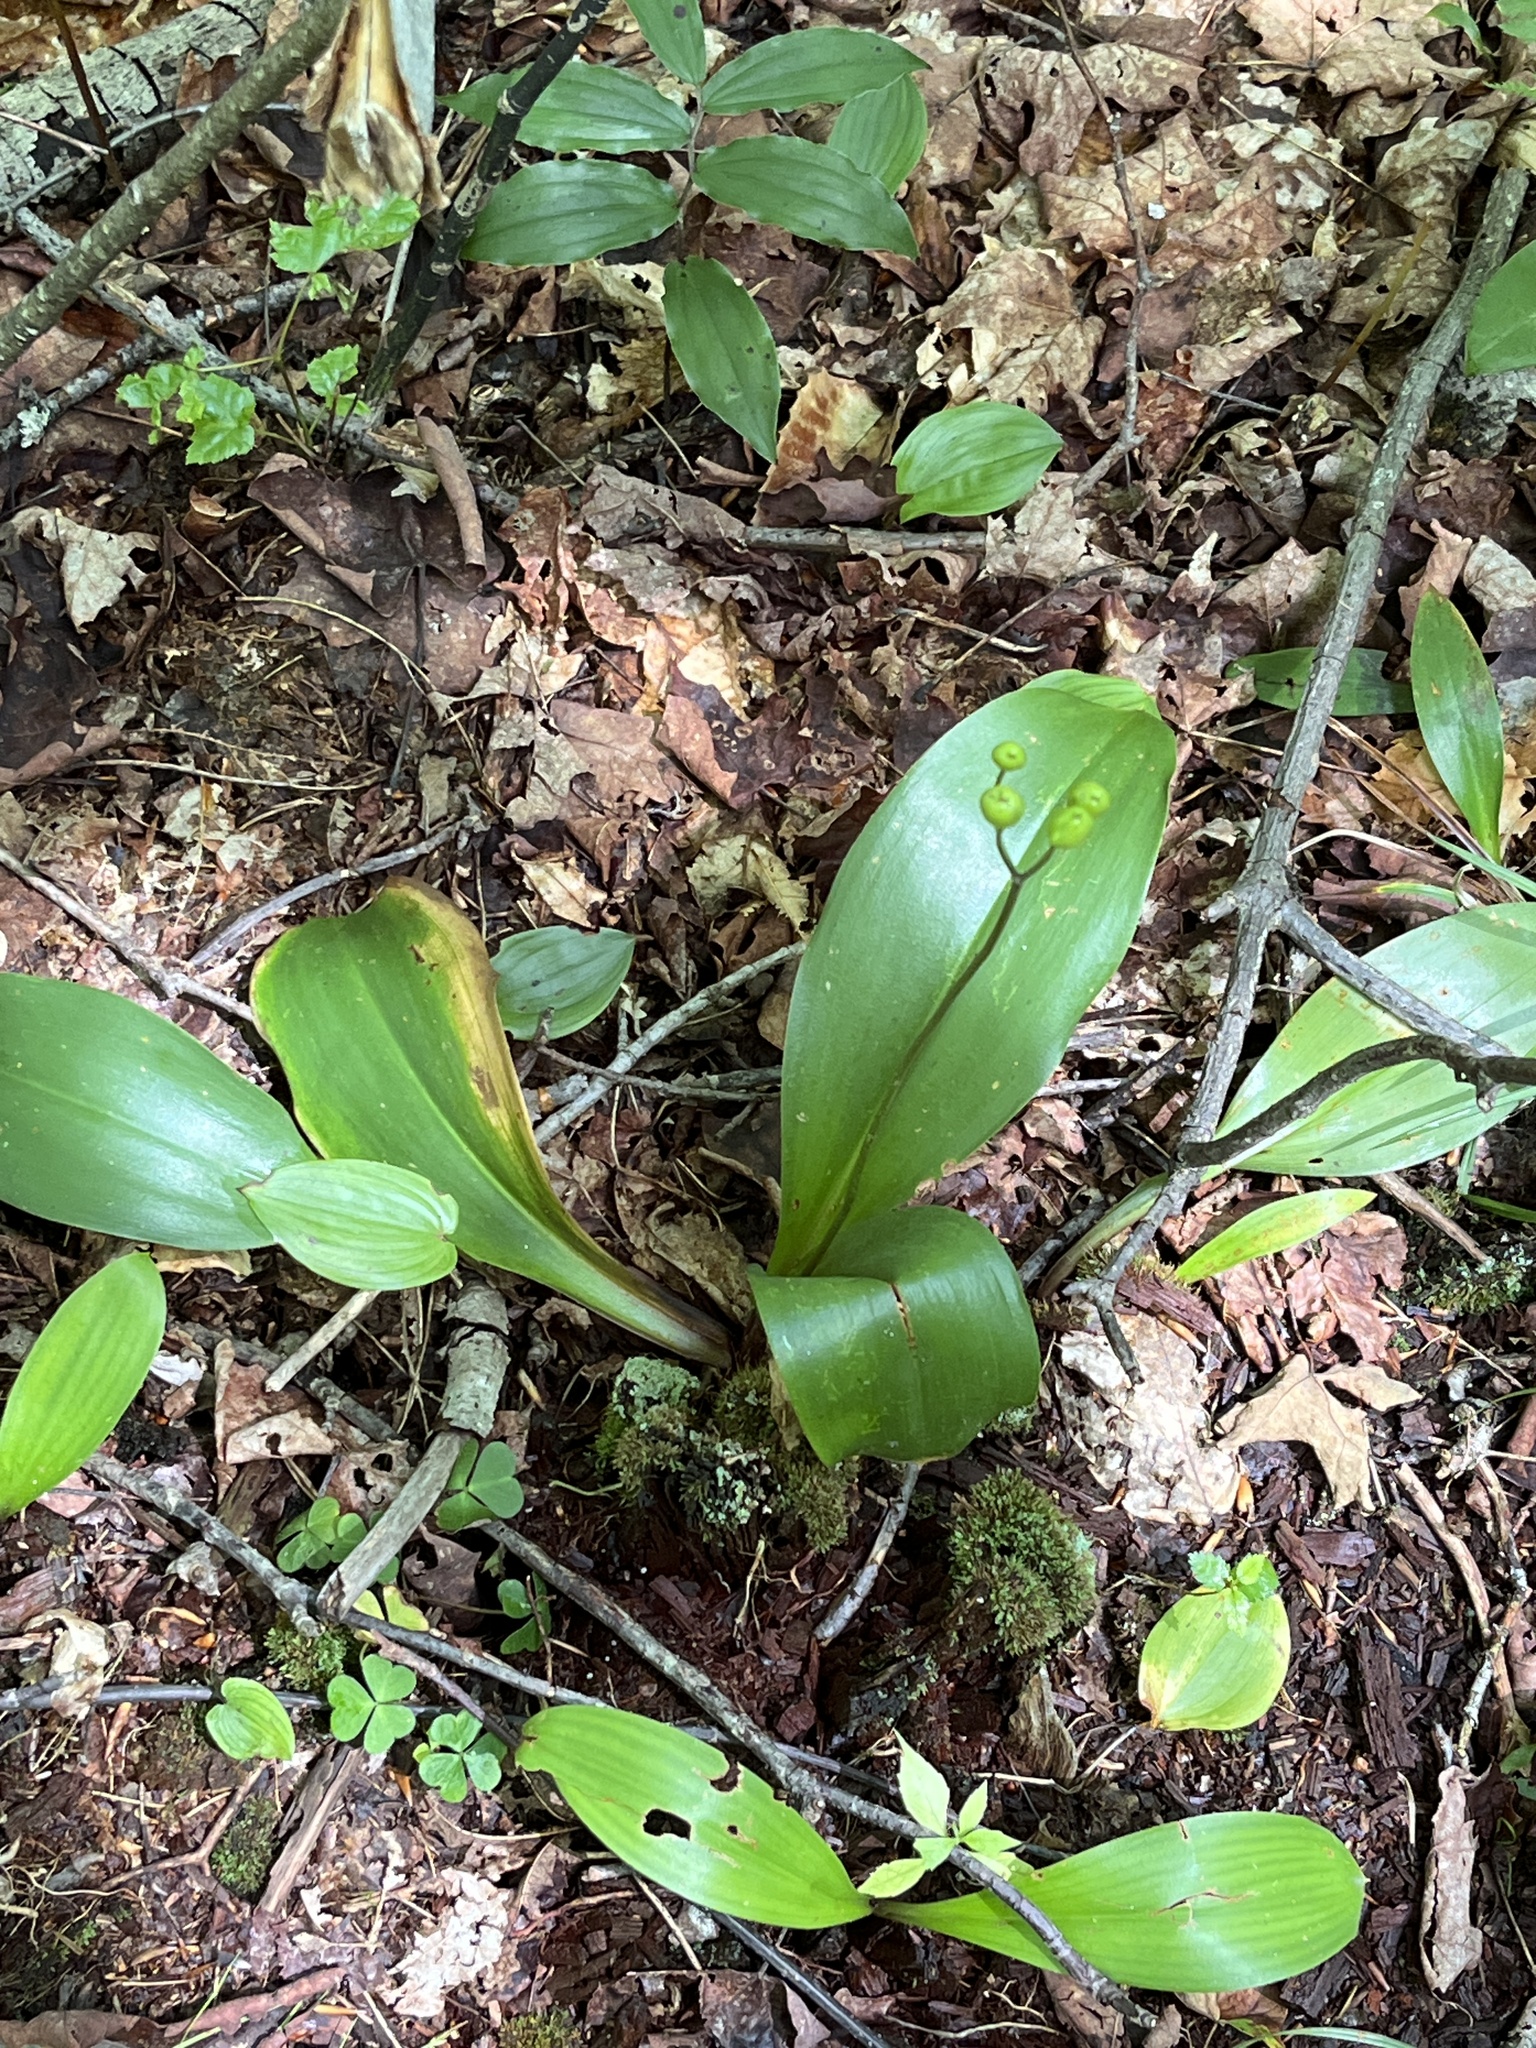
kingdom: Plantae
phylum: Tracheophyta
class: Liliopsida
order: Liliales
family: Liliaceae
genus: Clintonia
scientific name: Clintonia borealis
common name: Yellow clintonia
